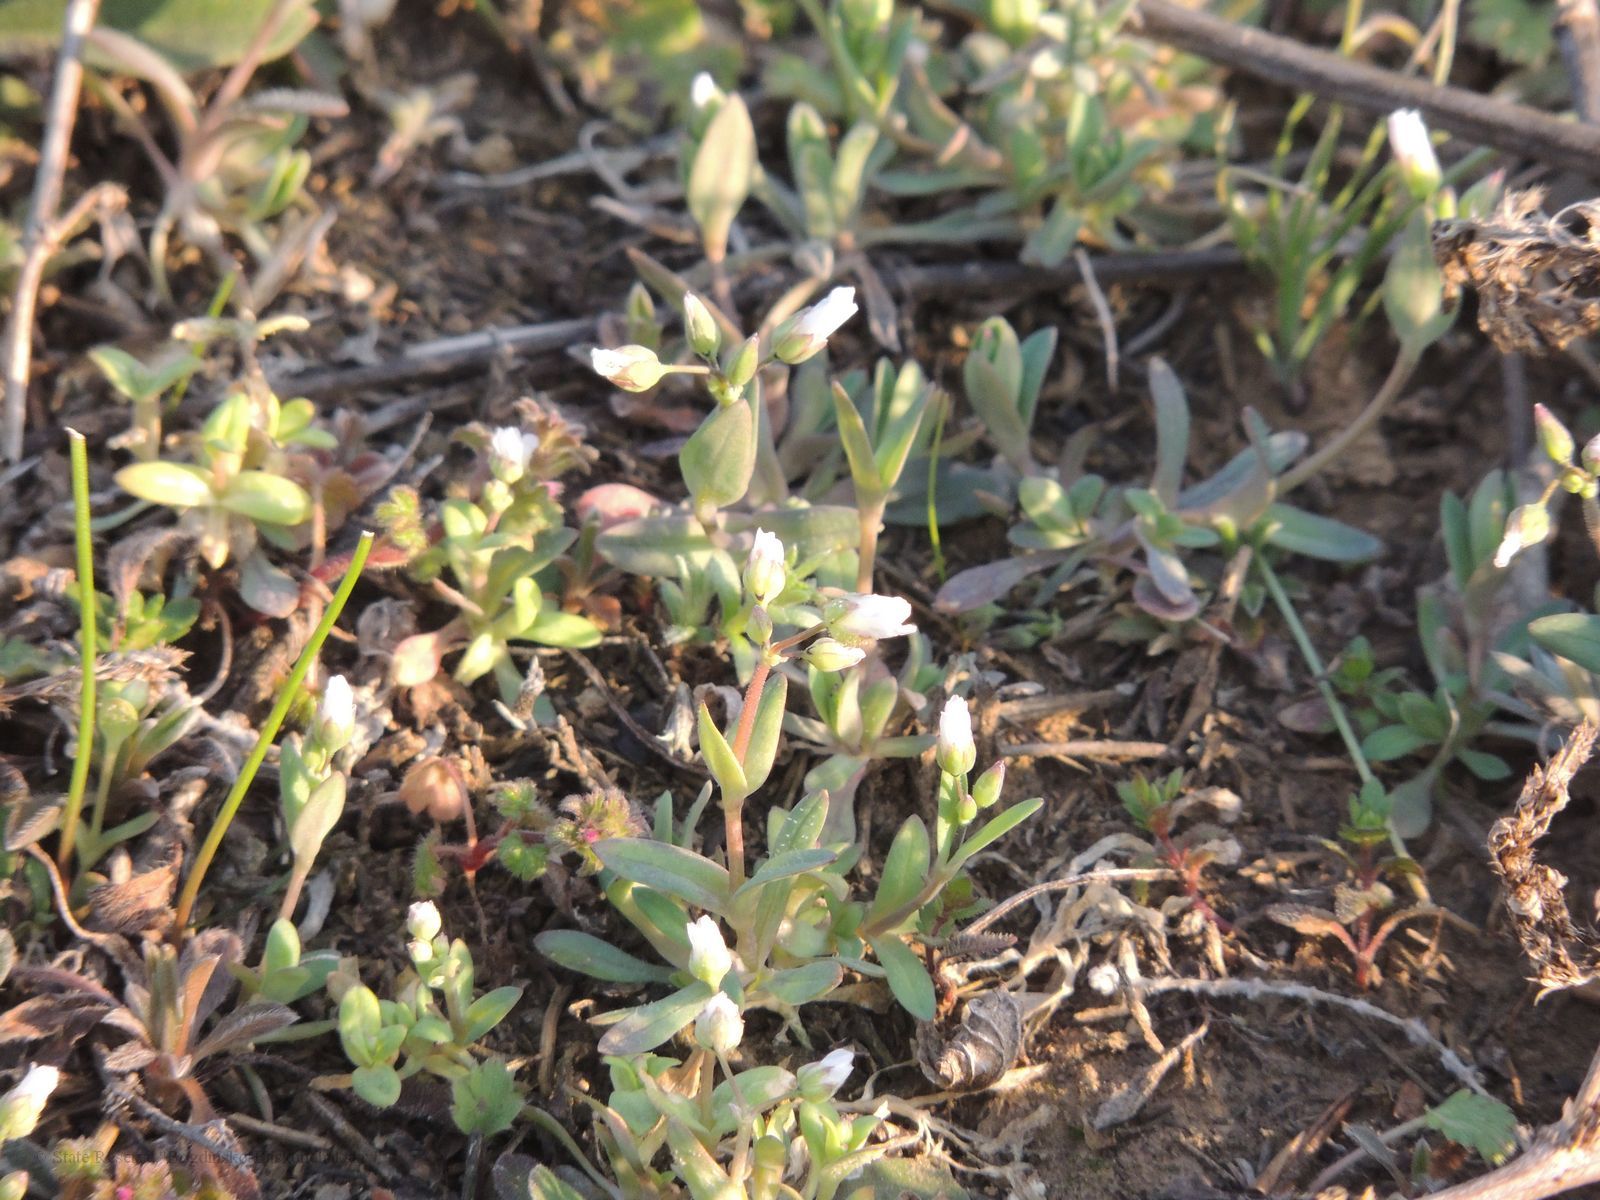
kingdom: Plantae
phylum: Tracheophyta
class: Magnoliopsida
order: Caryophyllales
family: Caryophyllaceae
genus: Holosteum
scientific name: Holosteum umbellatum
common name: Jagged chickweed
